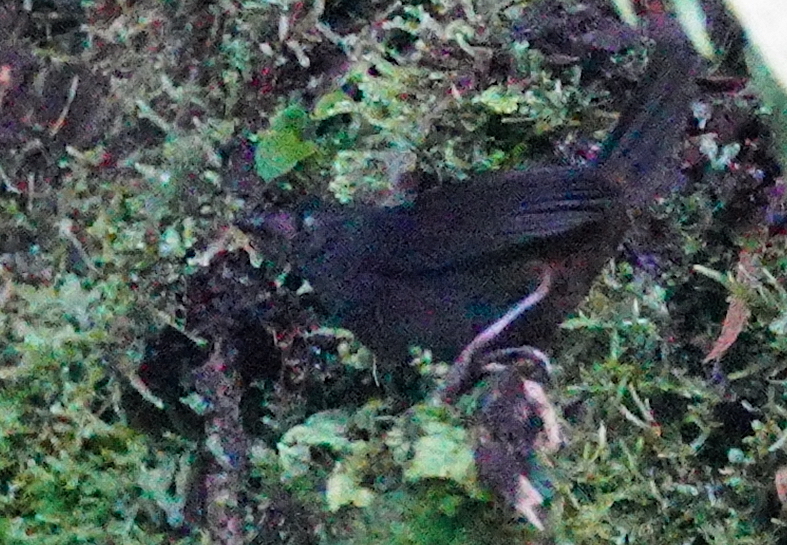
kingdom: Animalia
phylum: Chordata
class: Aves
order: Passeriformes
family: Rhinocryptidae
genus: Scytalopus
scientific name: Scytalopus alvarezlopezi
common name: Tatama tapaculo
